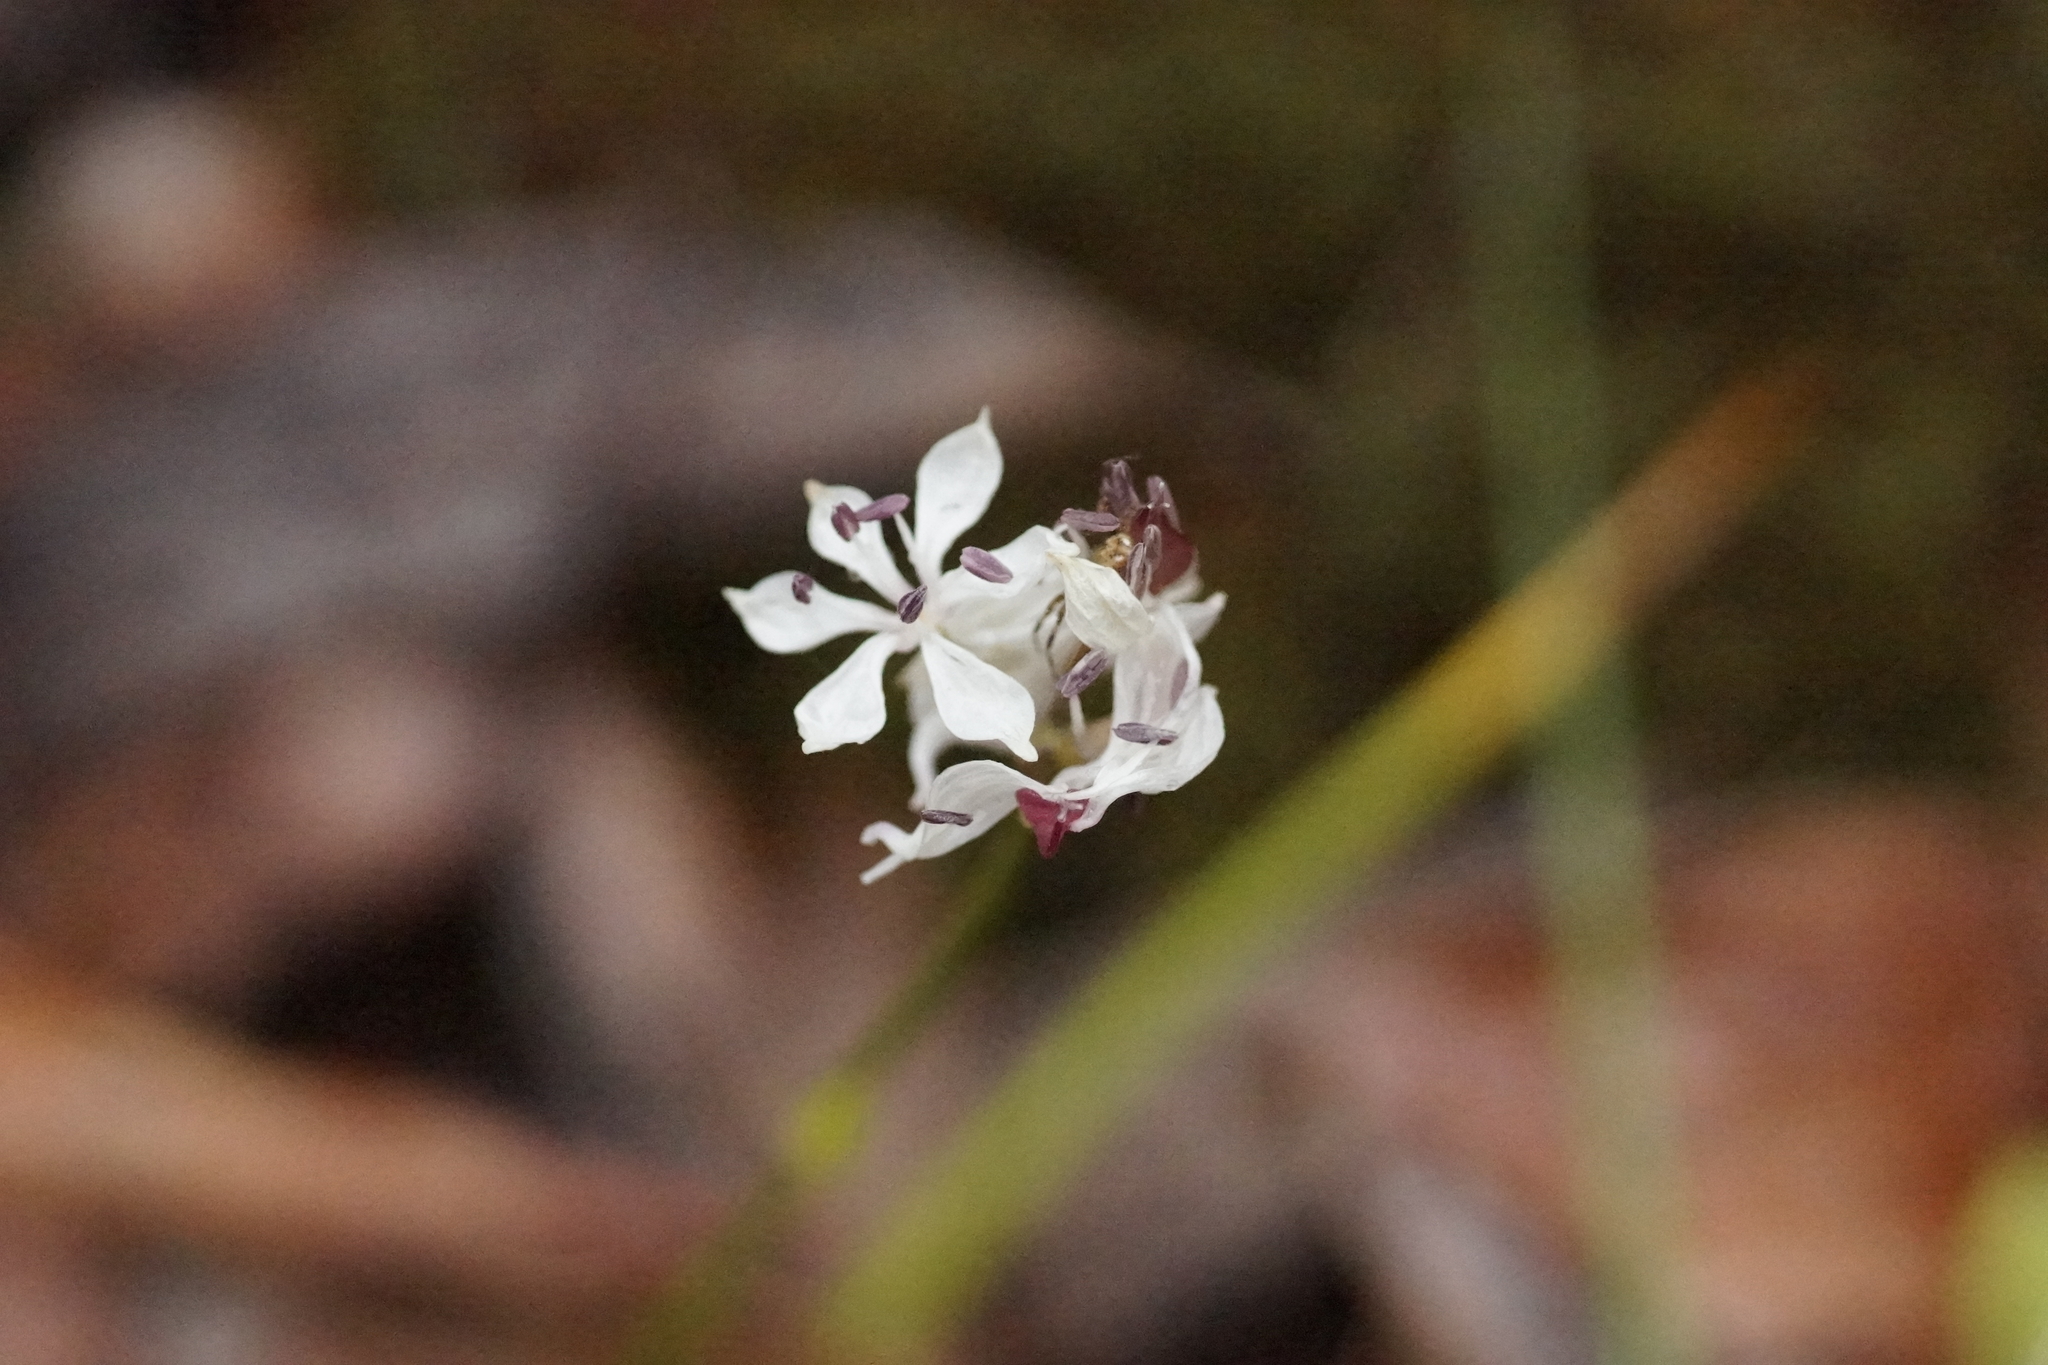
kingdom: Plantae
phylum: Tracheophyta
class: Liliopsida
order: Liliales
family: Colchicaceae
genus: Burchardia
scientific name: Burchardia umbellata
